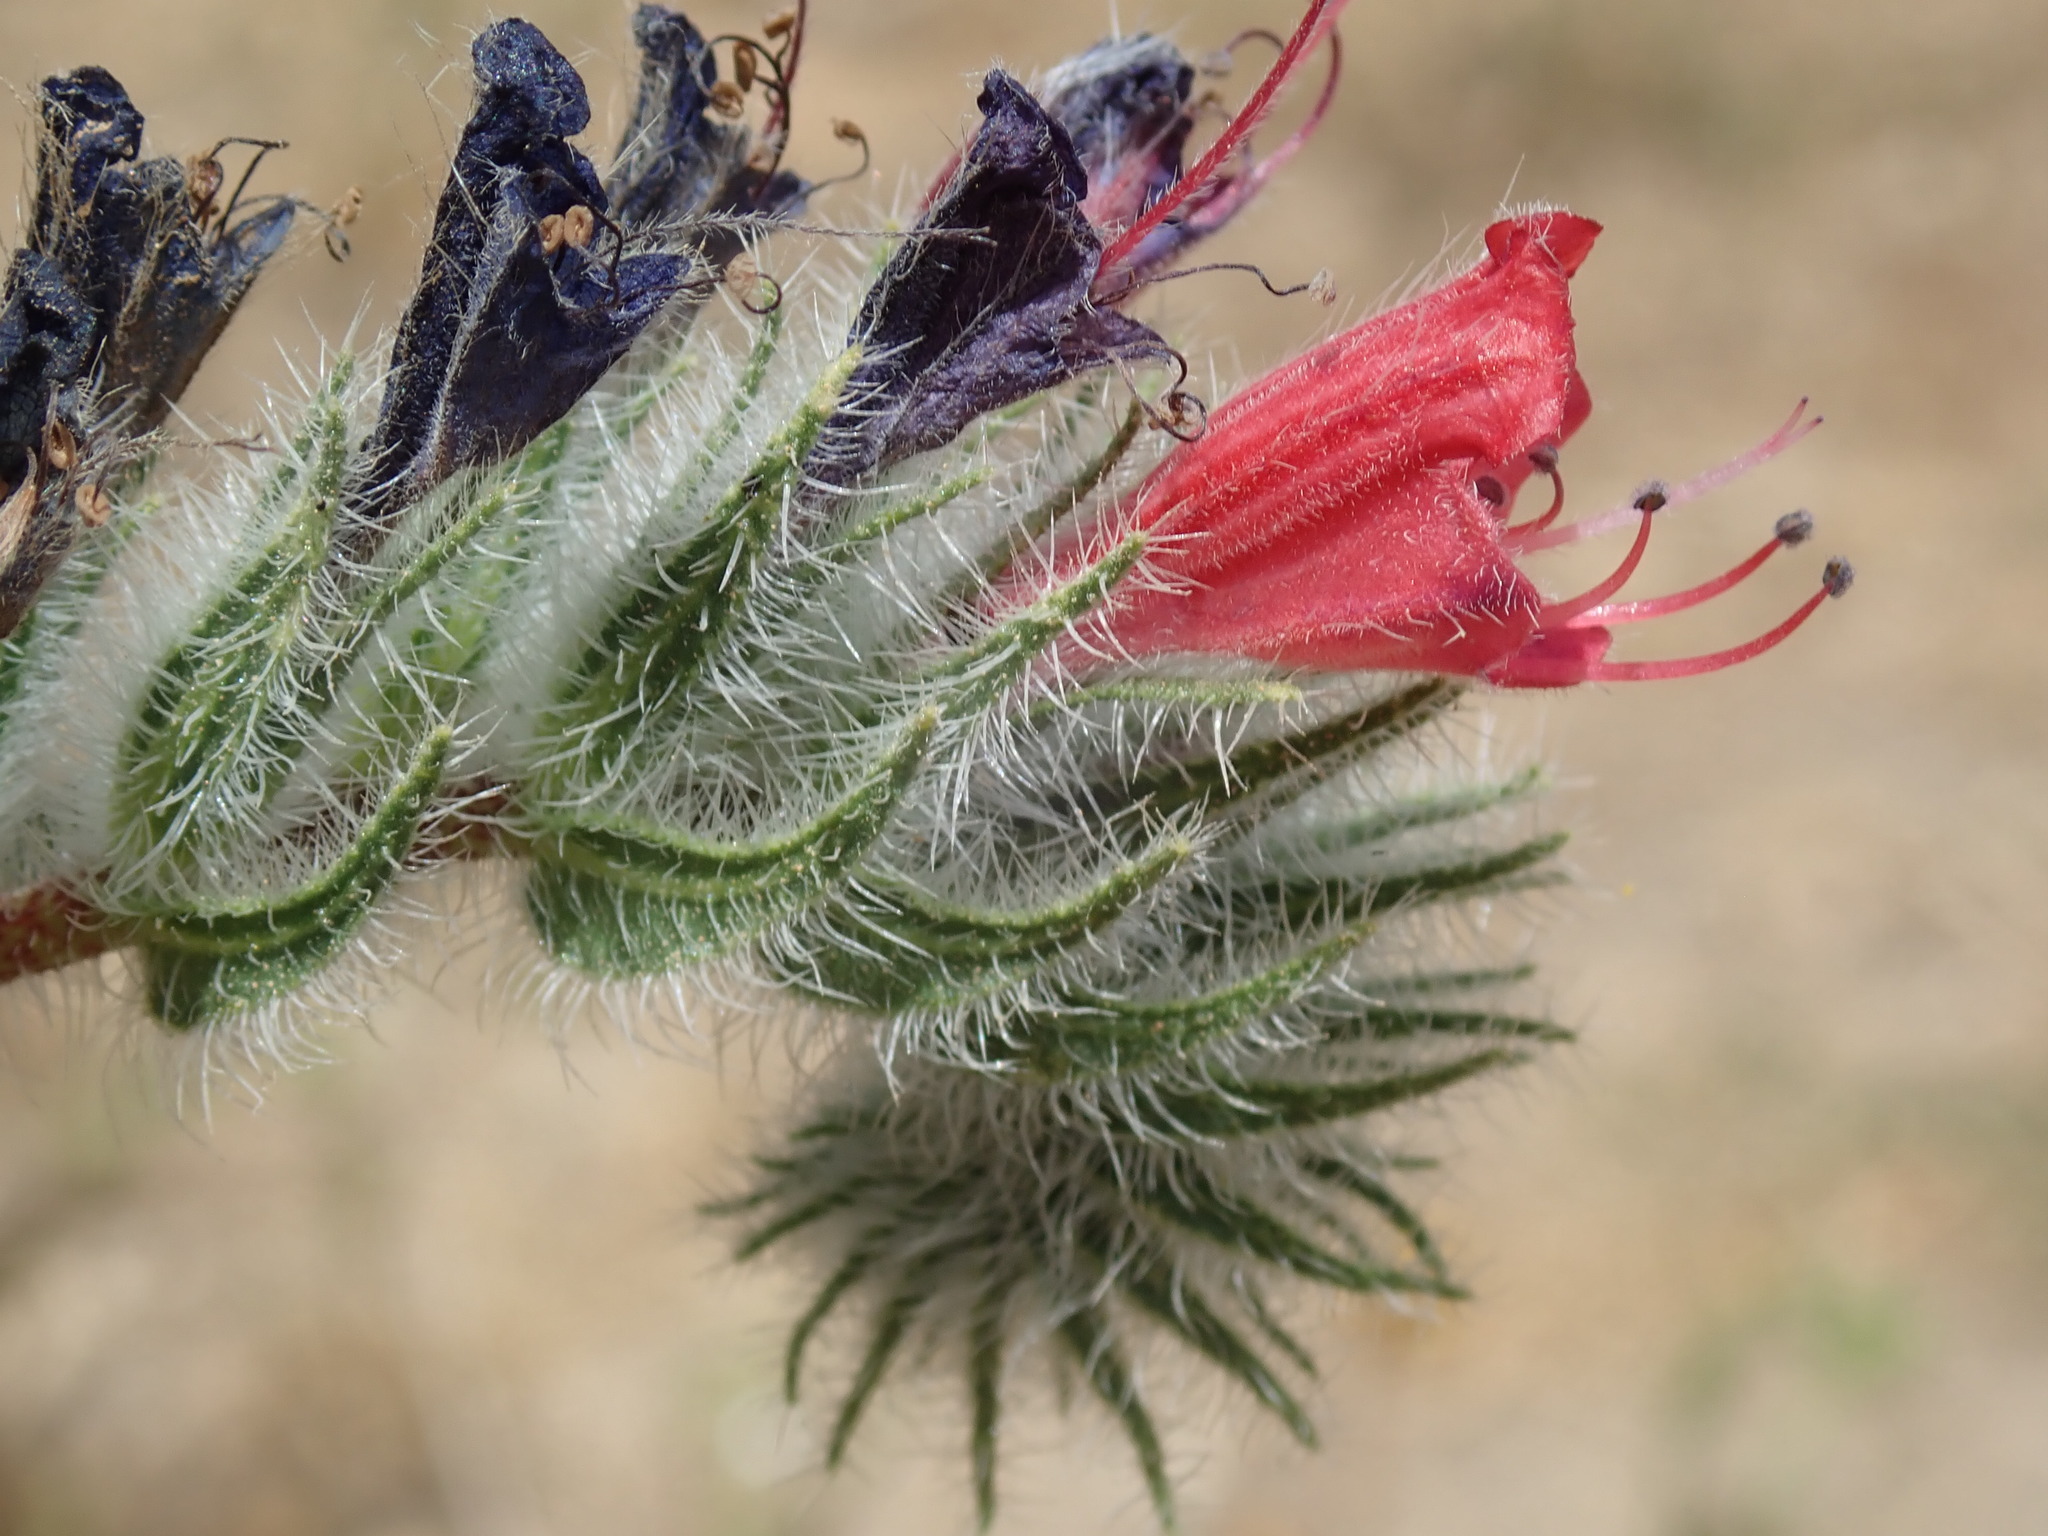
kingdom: Plantae
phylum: Tracheophyta
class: Magnoliopsida
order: Boraginales
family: Boraginaceae
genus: Echium
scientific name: Echium angustifolium
